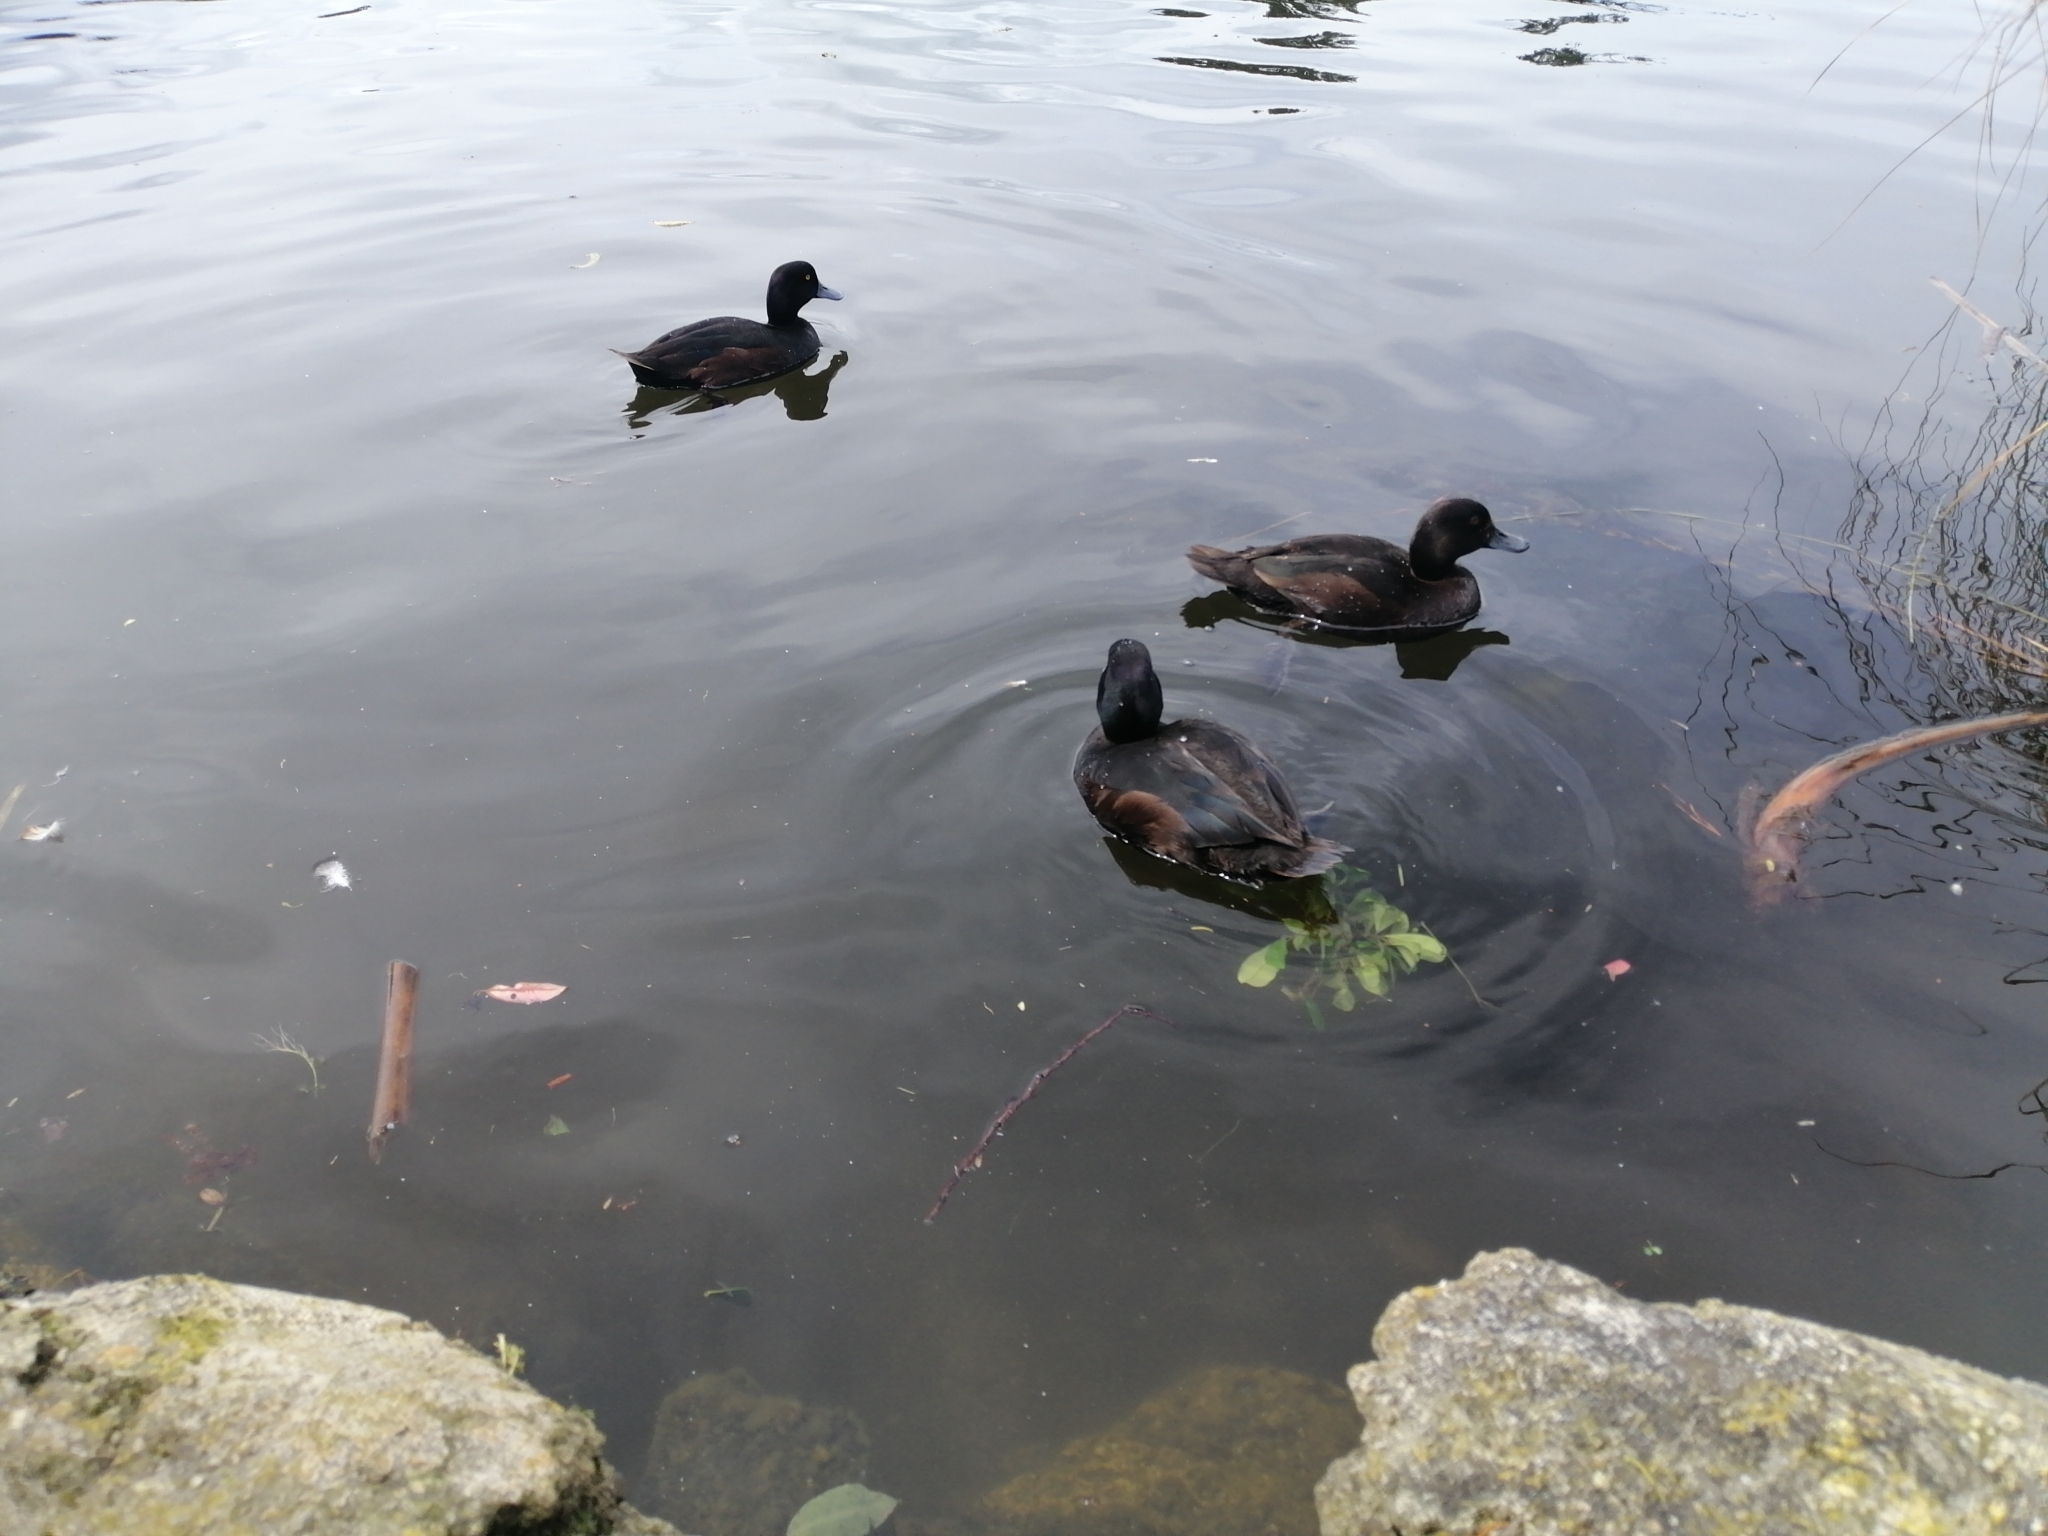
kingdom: Animalia
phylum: Chordata
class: Aves
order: Anseriformes
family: Anatidae
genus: Aythya
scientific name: Aythya novaeseelandiae
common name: New zealand scaup
